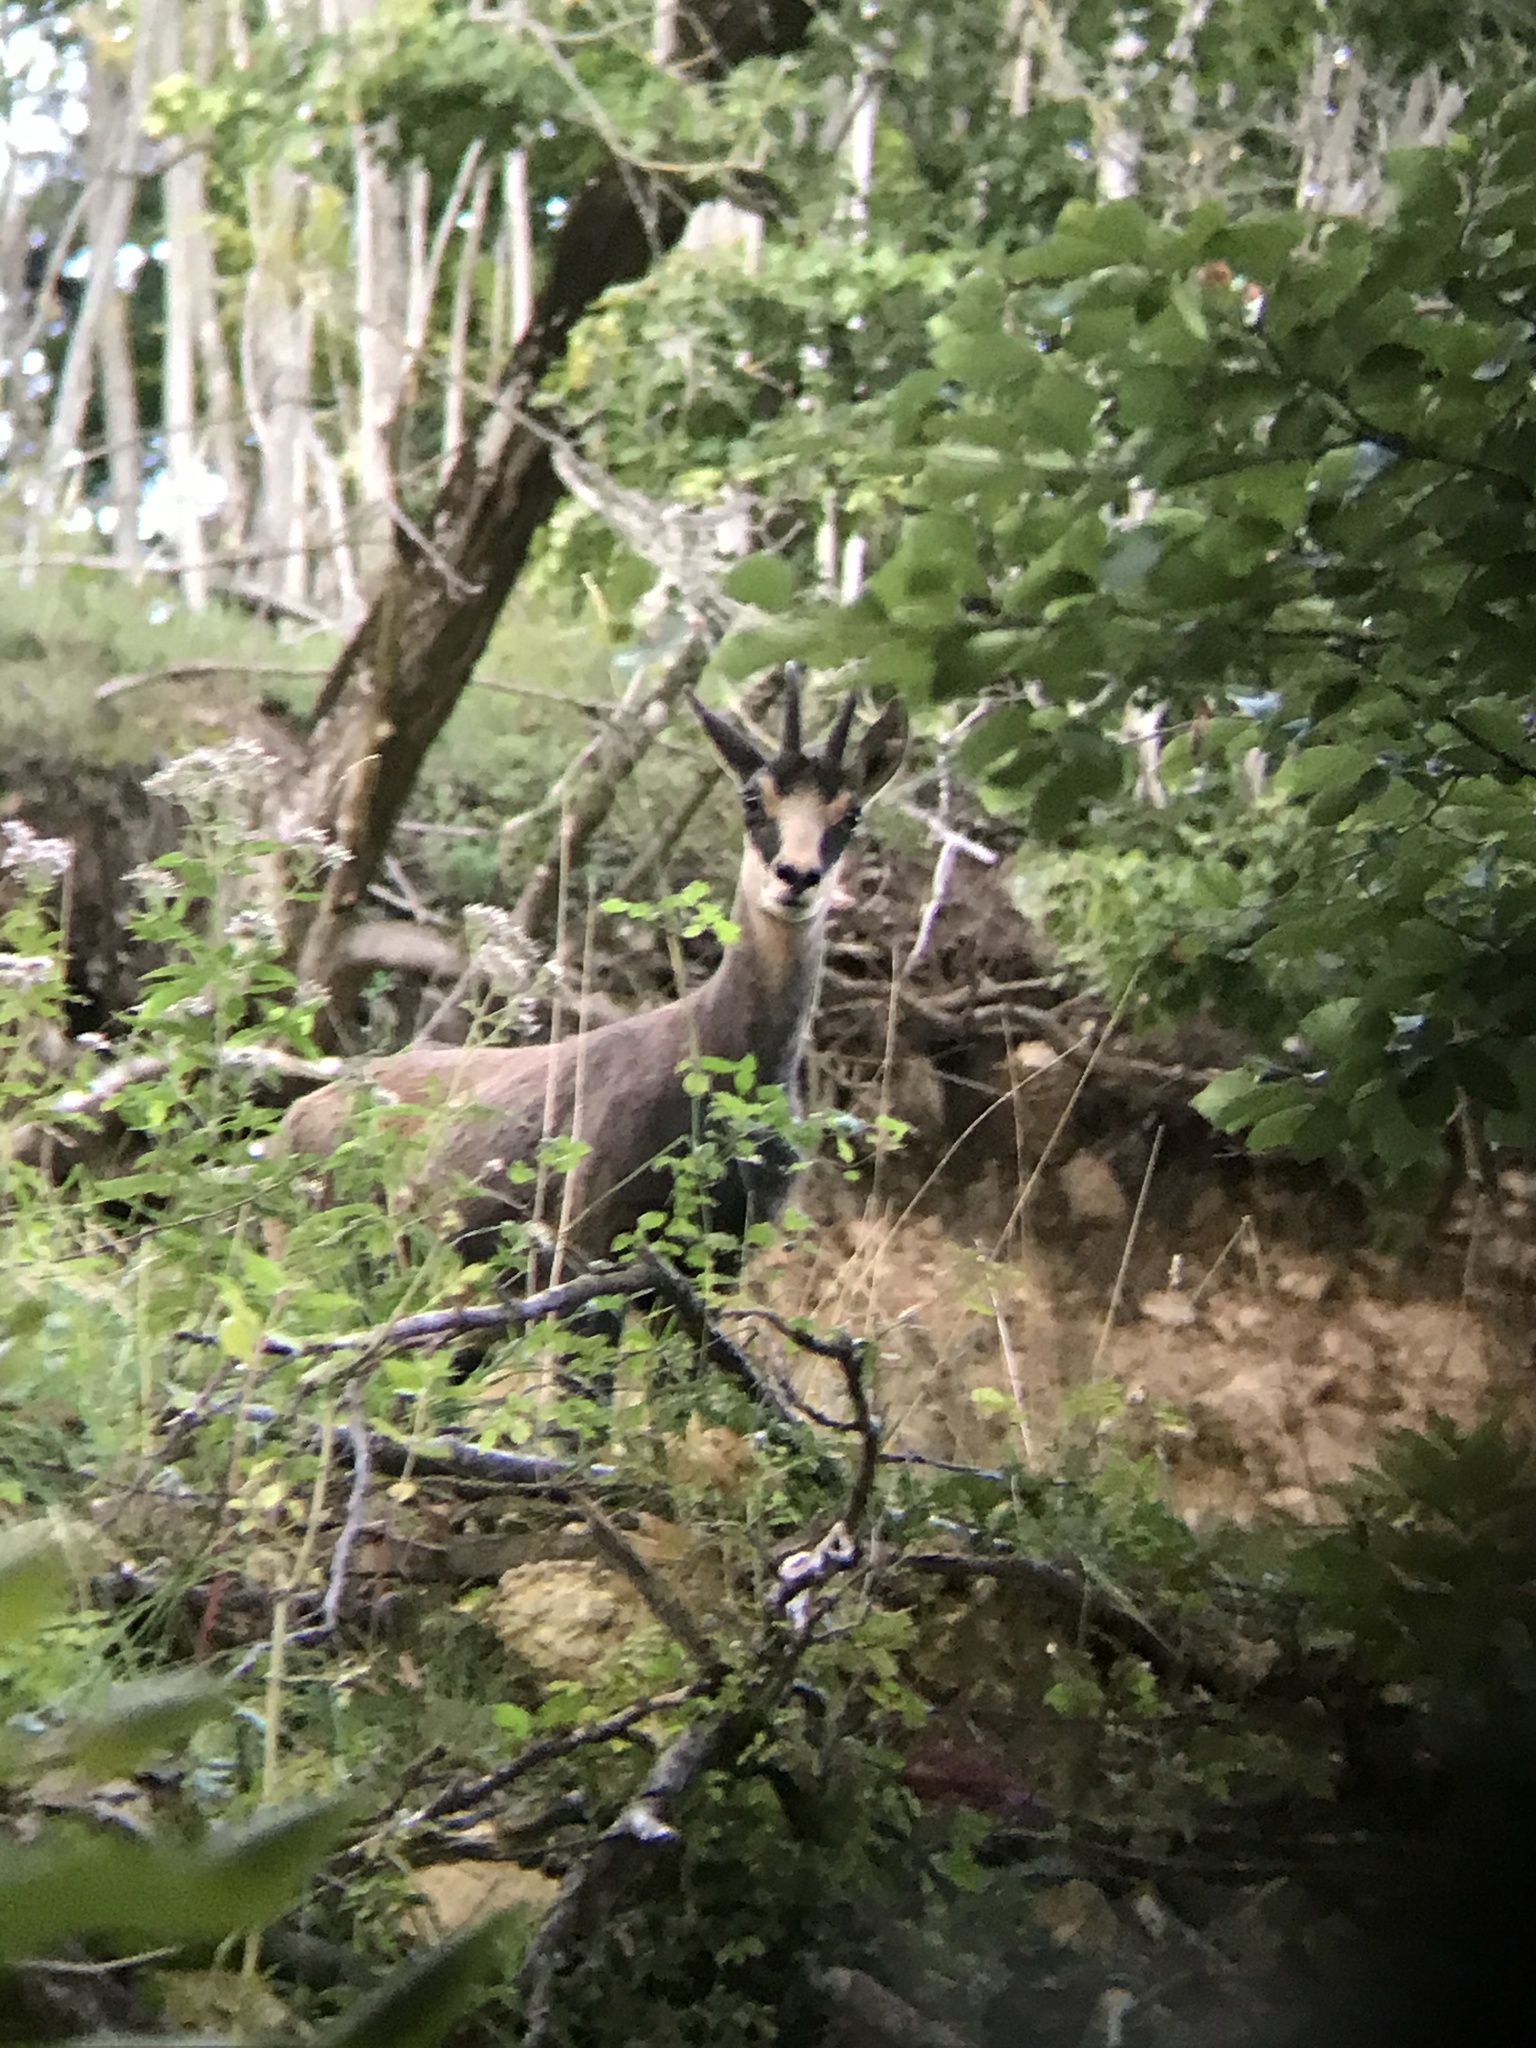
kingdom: Animalia
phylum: Chordata
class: Mammalia
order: Artiodactyla
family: Bovidae
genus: Rupicapra
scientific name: Rupicapra rupicapra
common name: Chamois
